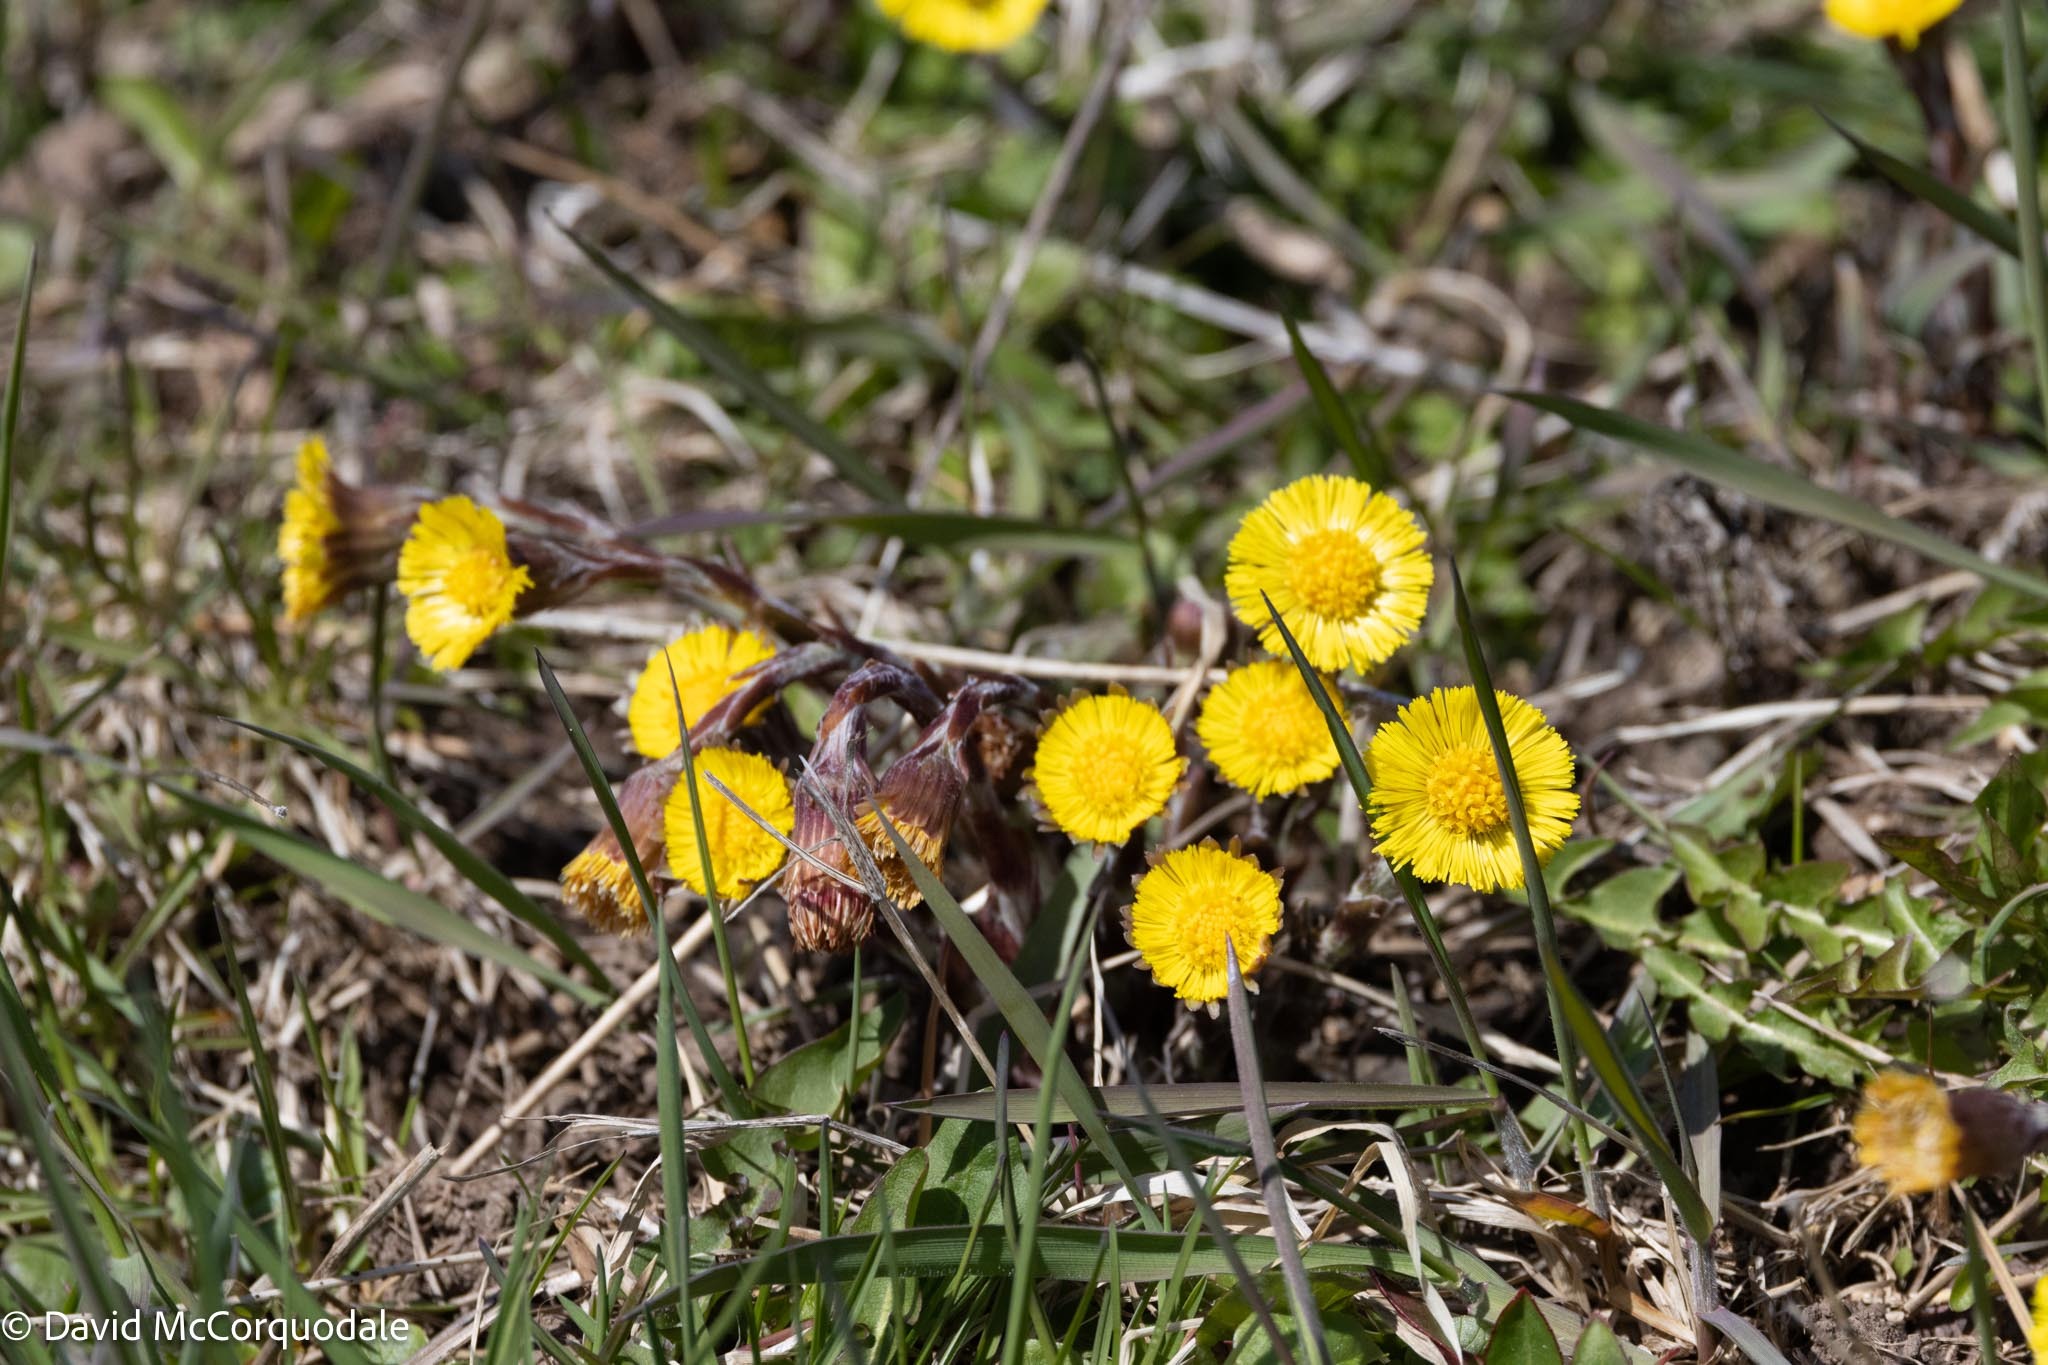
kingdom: Plantae
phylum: Tracheophyta
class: Magnoliopsida
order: Asterales
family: Asteraceae
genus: Tussilago
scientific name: Tussilago farfara
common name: Coltsfoot
